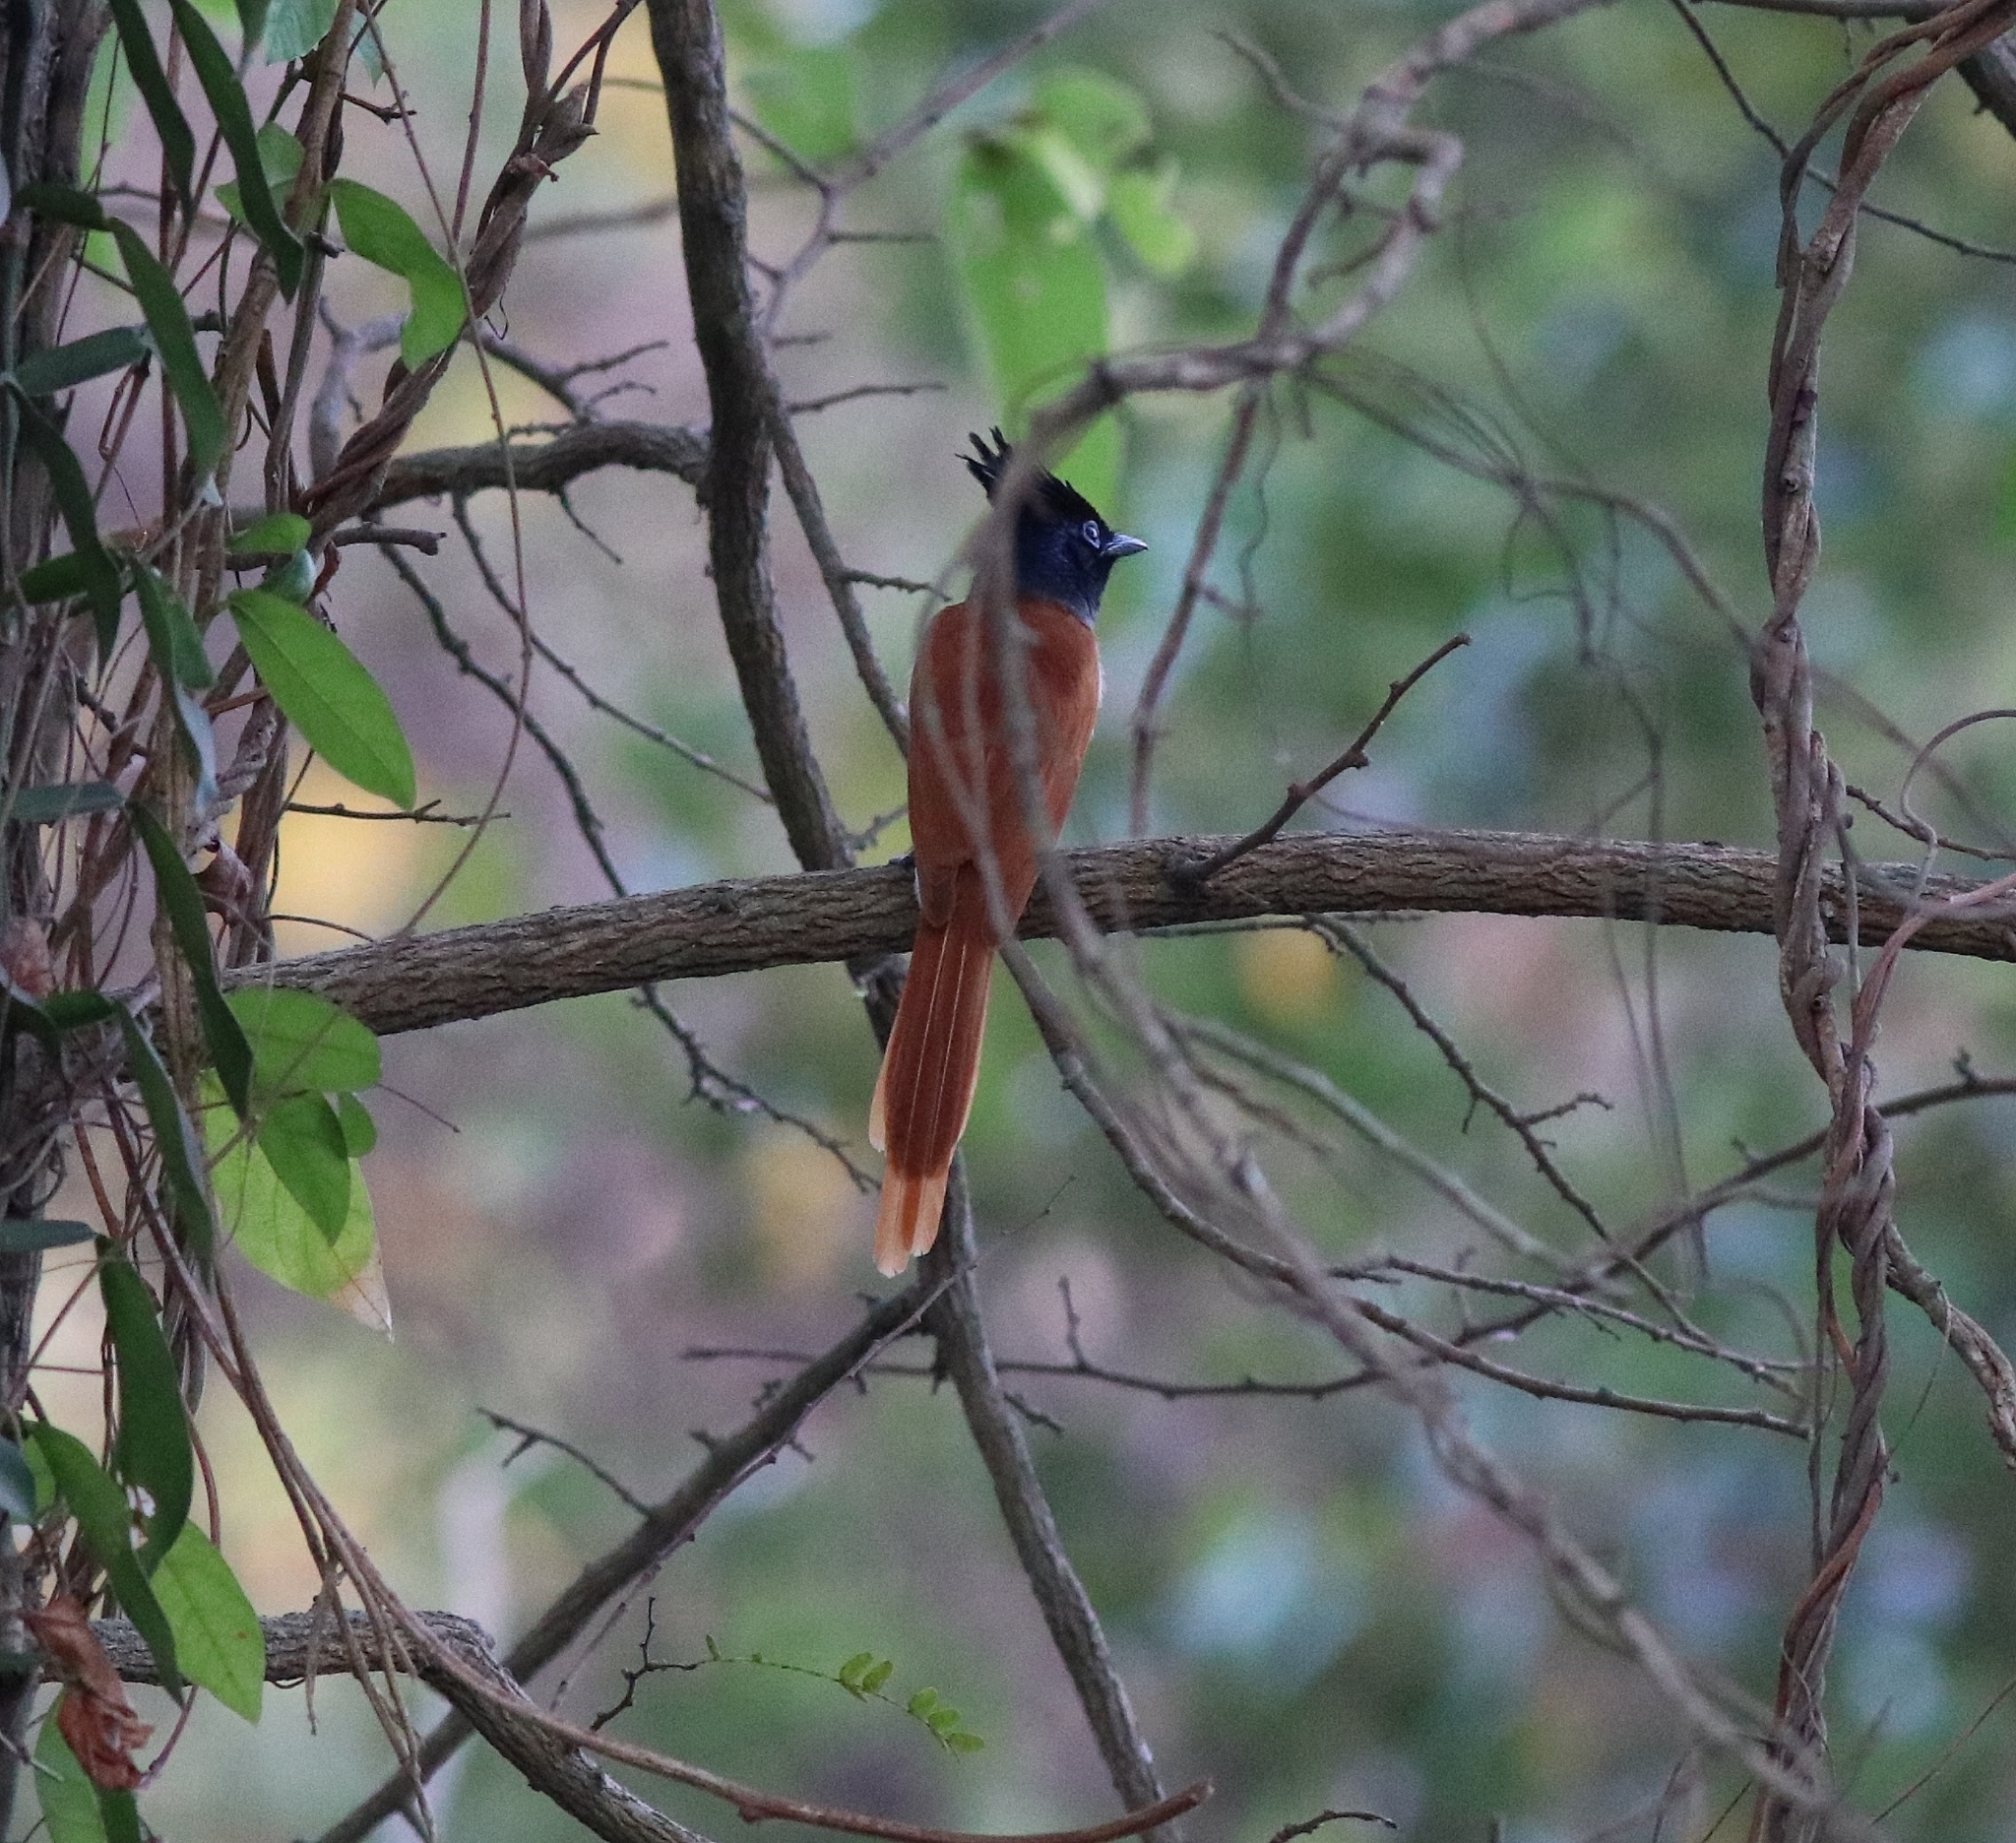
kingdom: Animalia
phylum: Chordata
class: Aves
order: Passeriformes
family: Monarchidae
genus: Terpsiphone
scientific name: Terpsiphone paradisi
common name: Indian paradise flycatcher
